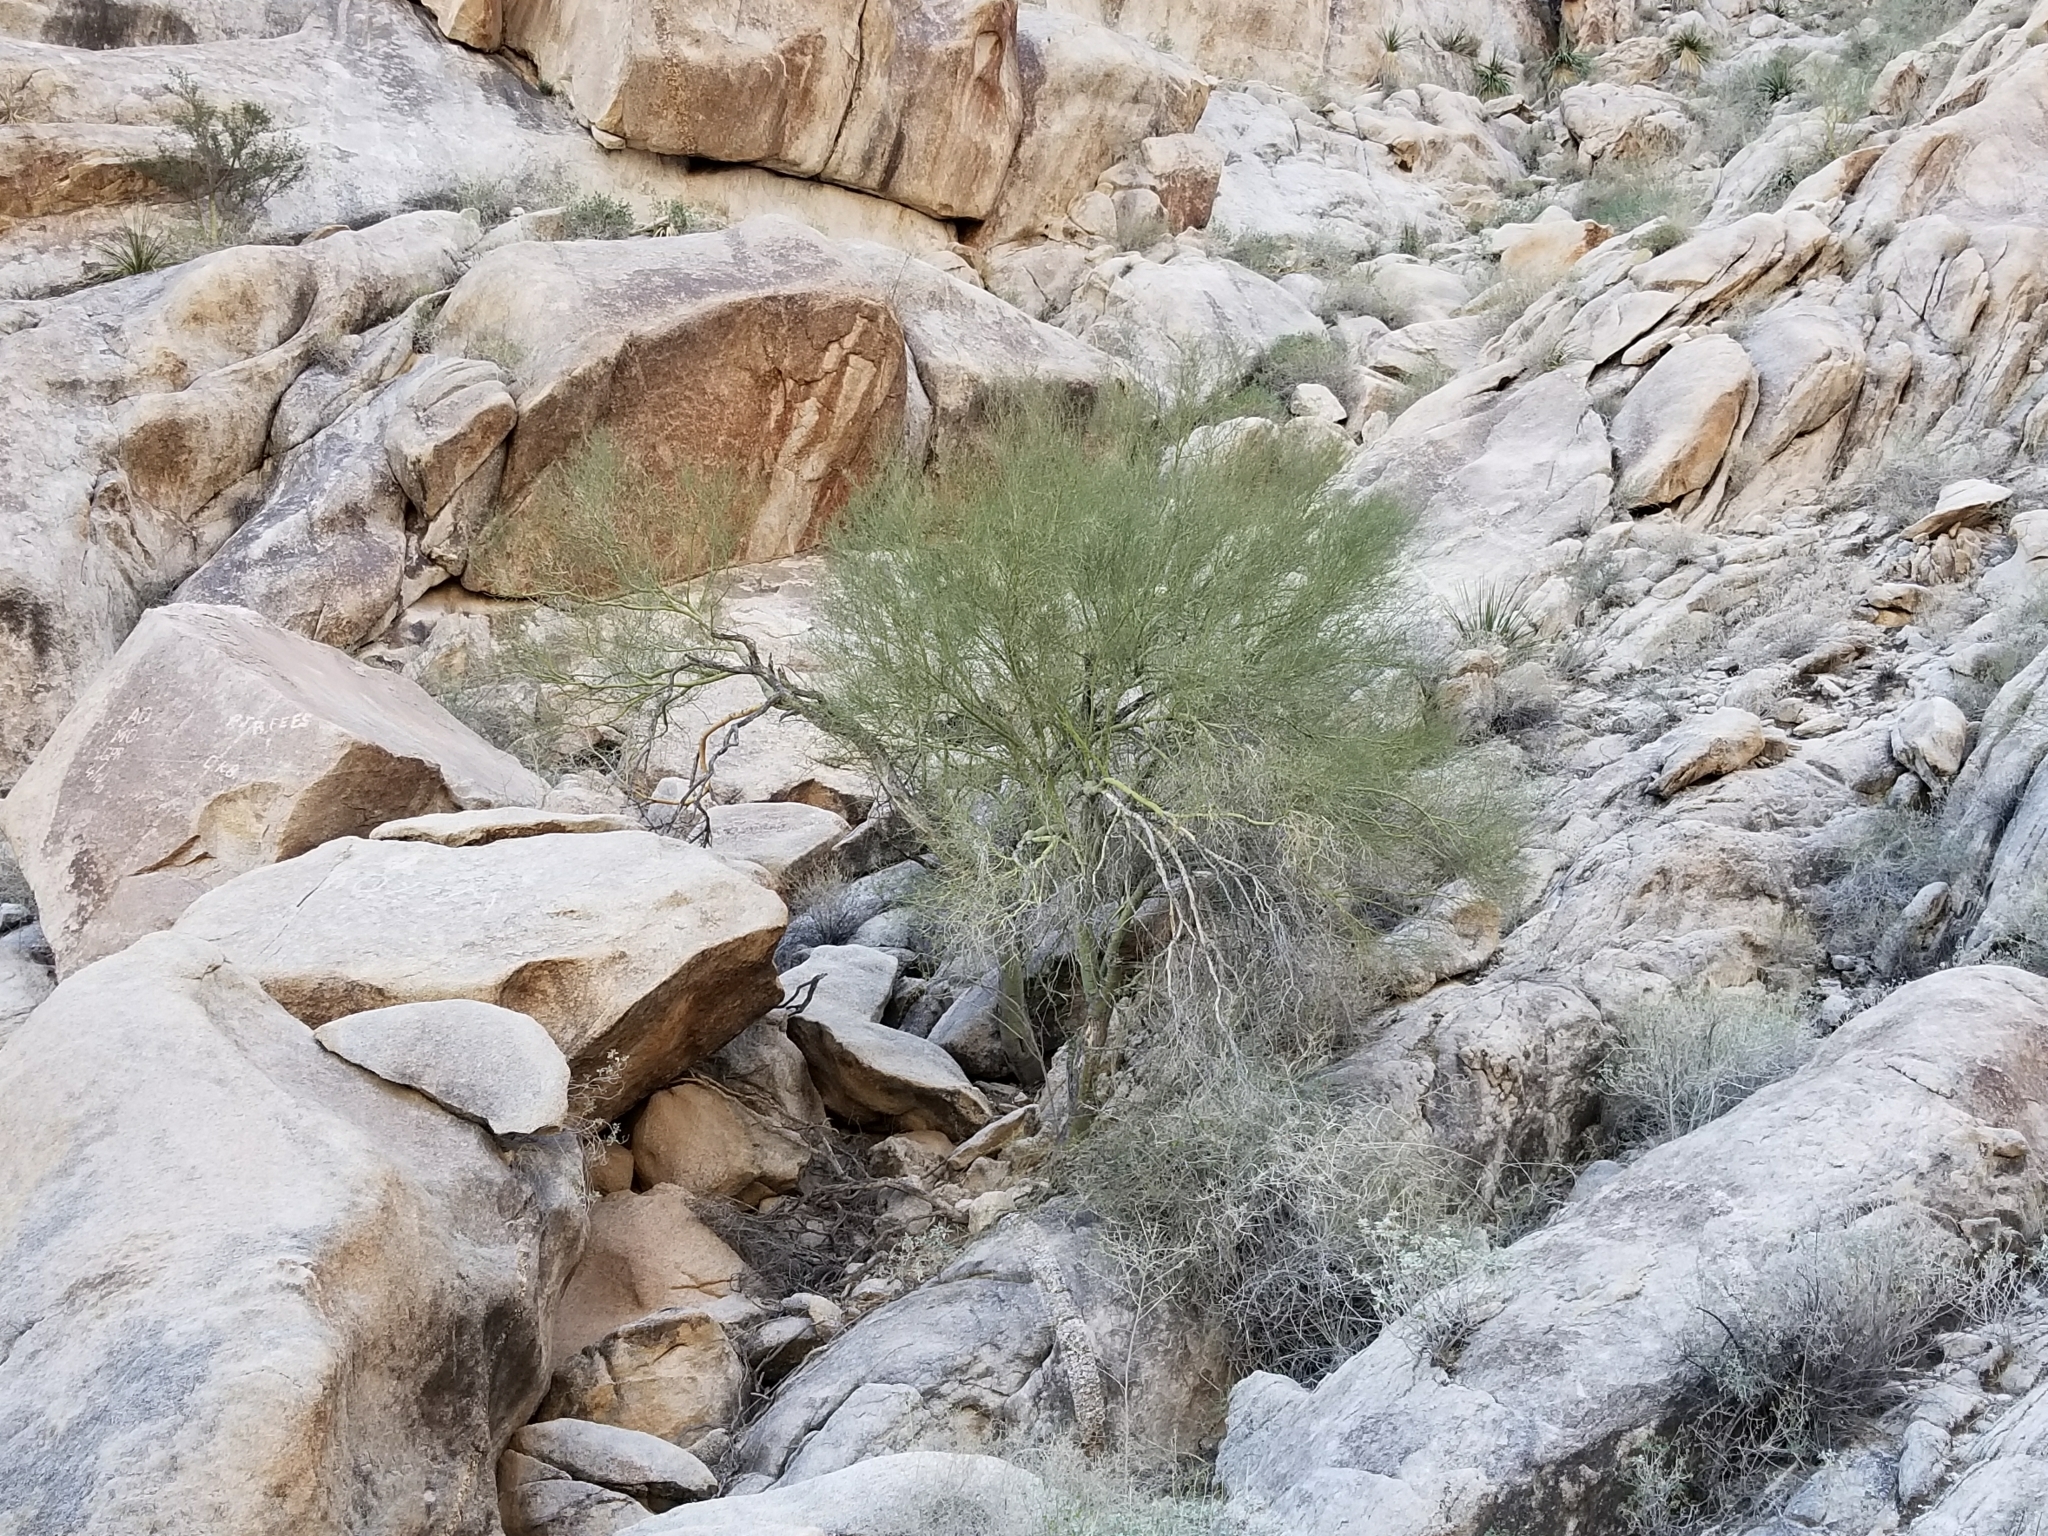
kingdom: Plantae
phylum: Tracheophyta
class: Magnoliopsida
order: Fabales
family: Fabaceae
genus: Parkinsonia
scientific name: Parkinsonia florida
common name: Blue paloverde
